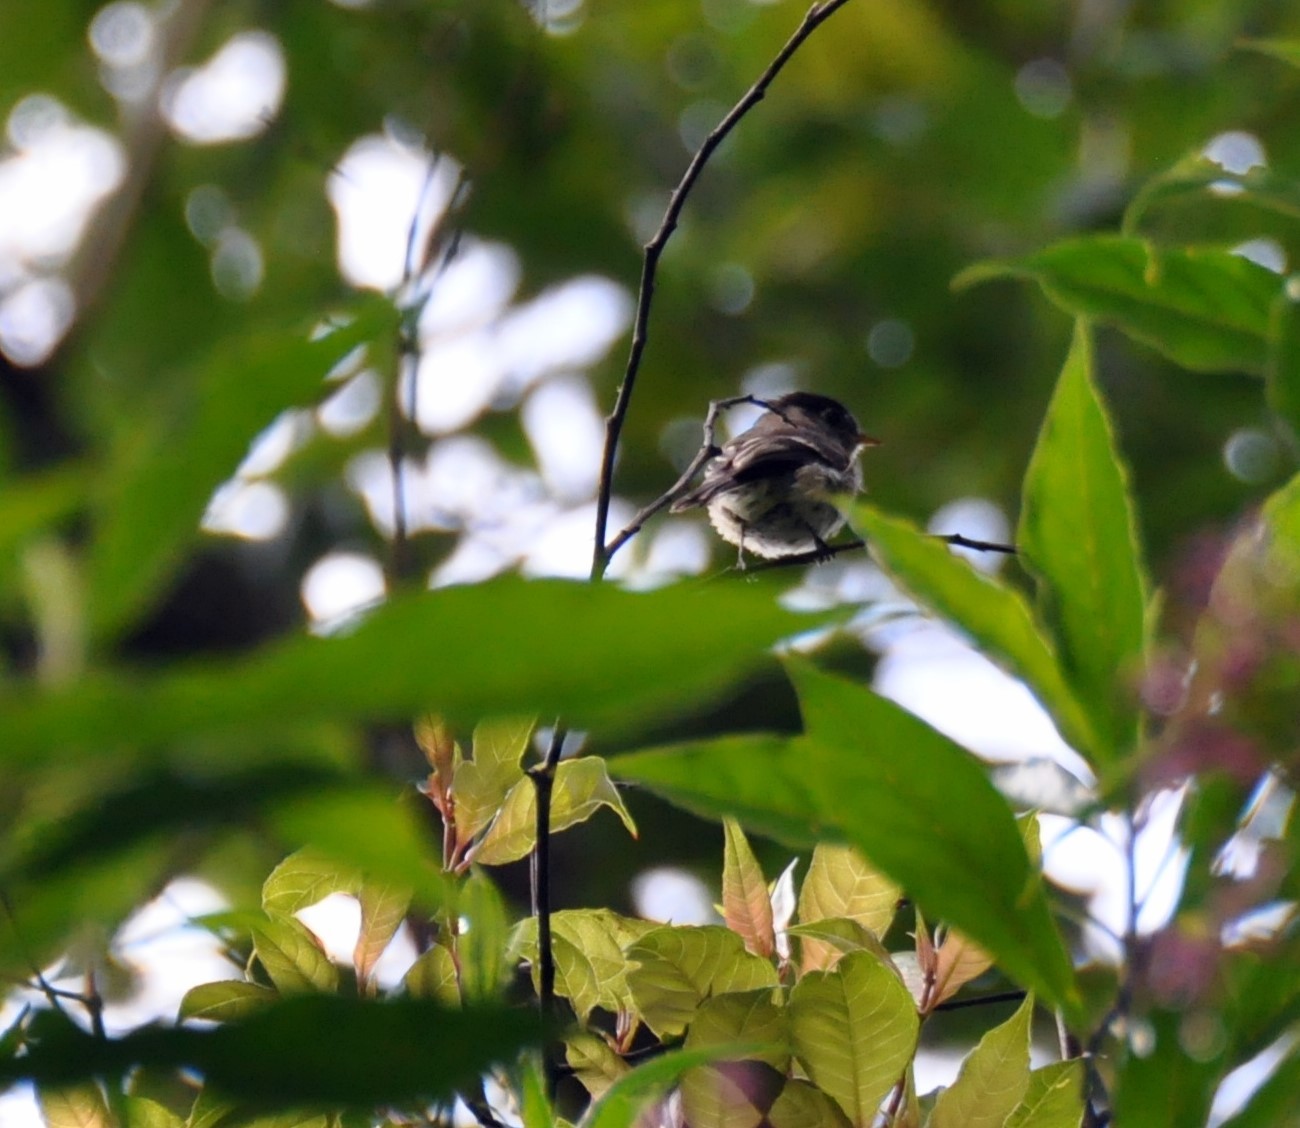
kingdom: Animalia
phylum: Chordata
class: Aves
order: Passeriformes
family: Tyrannidae
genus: Empidonax
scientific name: Empidonax atriceps
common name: Black-capped flycatcher
